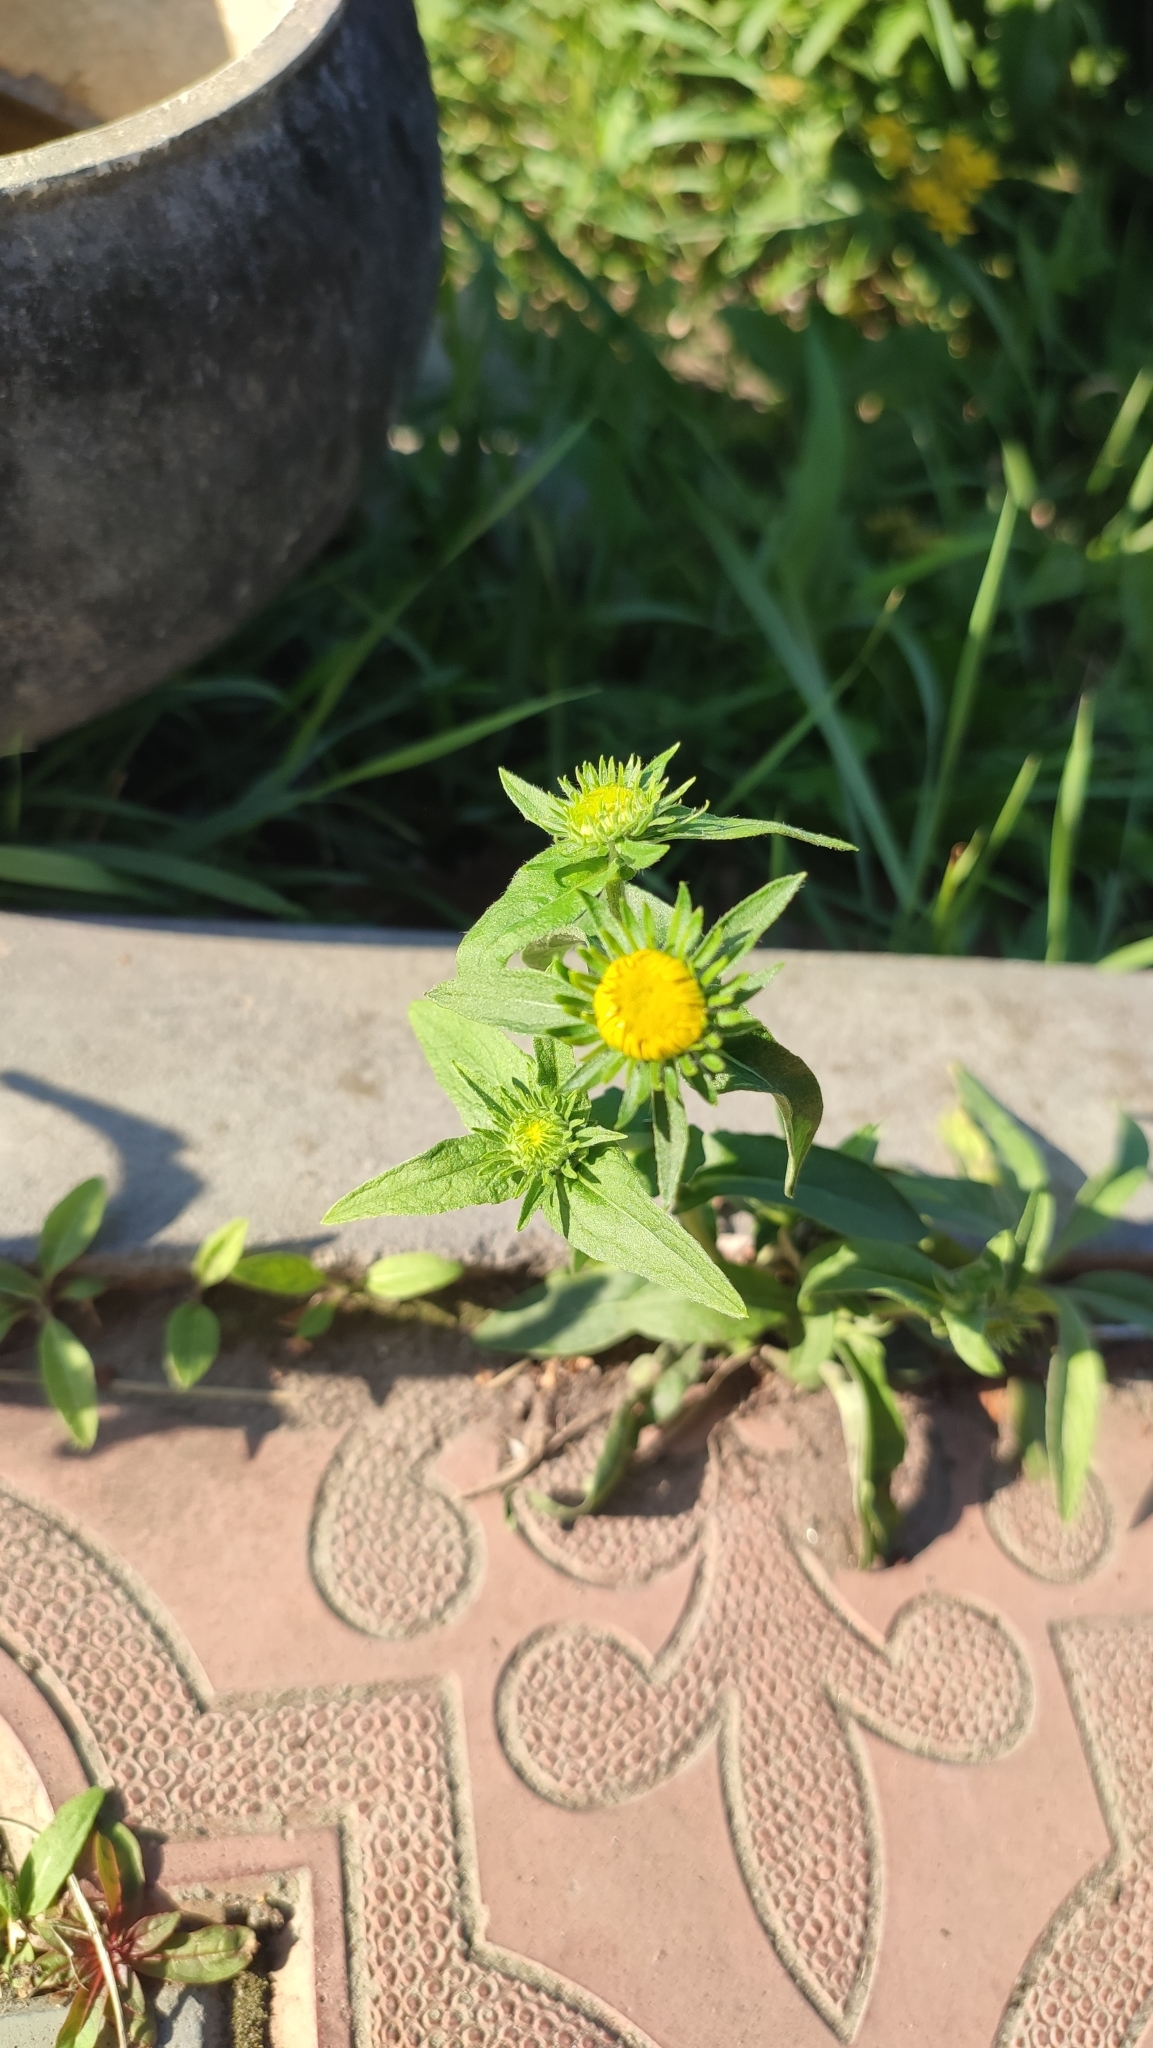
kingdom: Plantae
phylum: Tracheophyta
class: Magnoliopsida
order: Asterales
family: Asteraceae
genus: Pentanema
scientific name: Pentanema britannicum
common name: British elecampane
